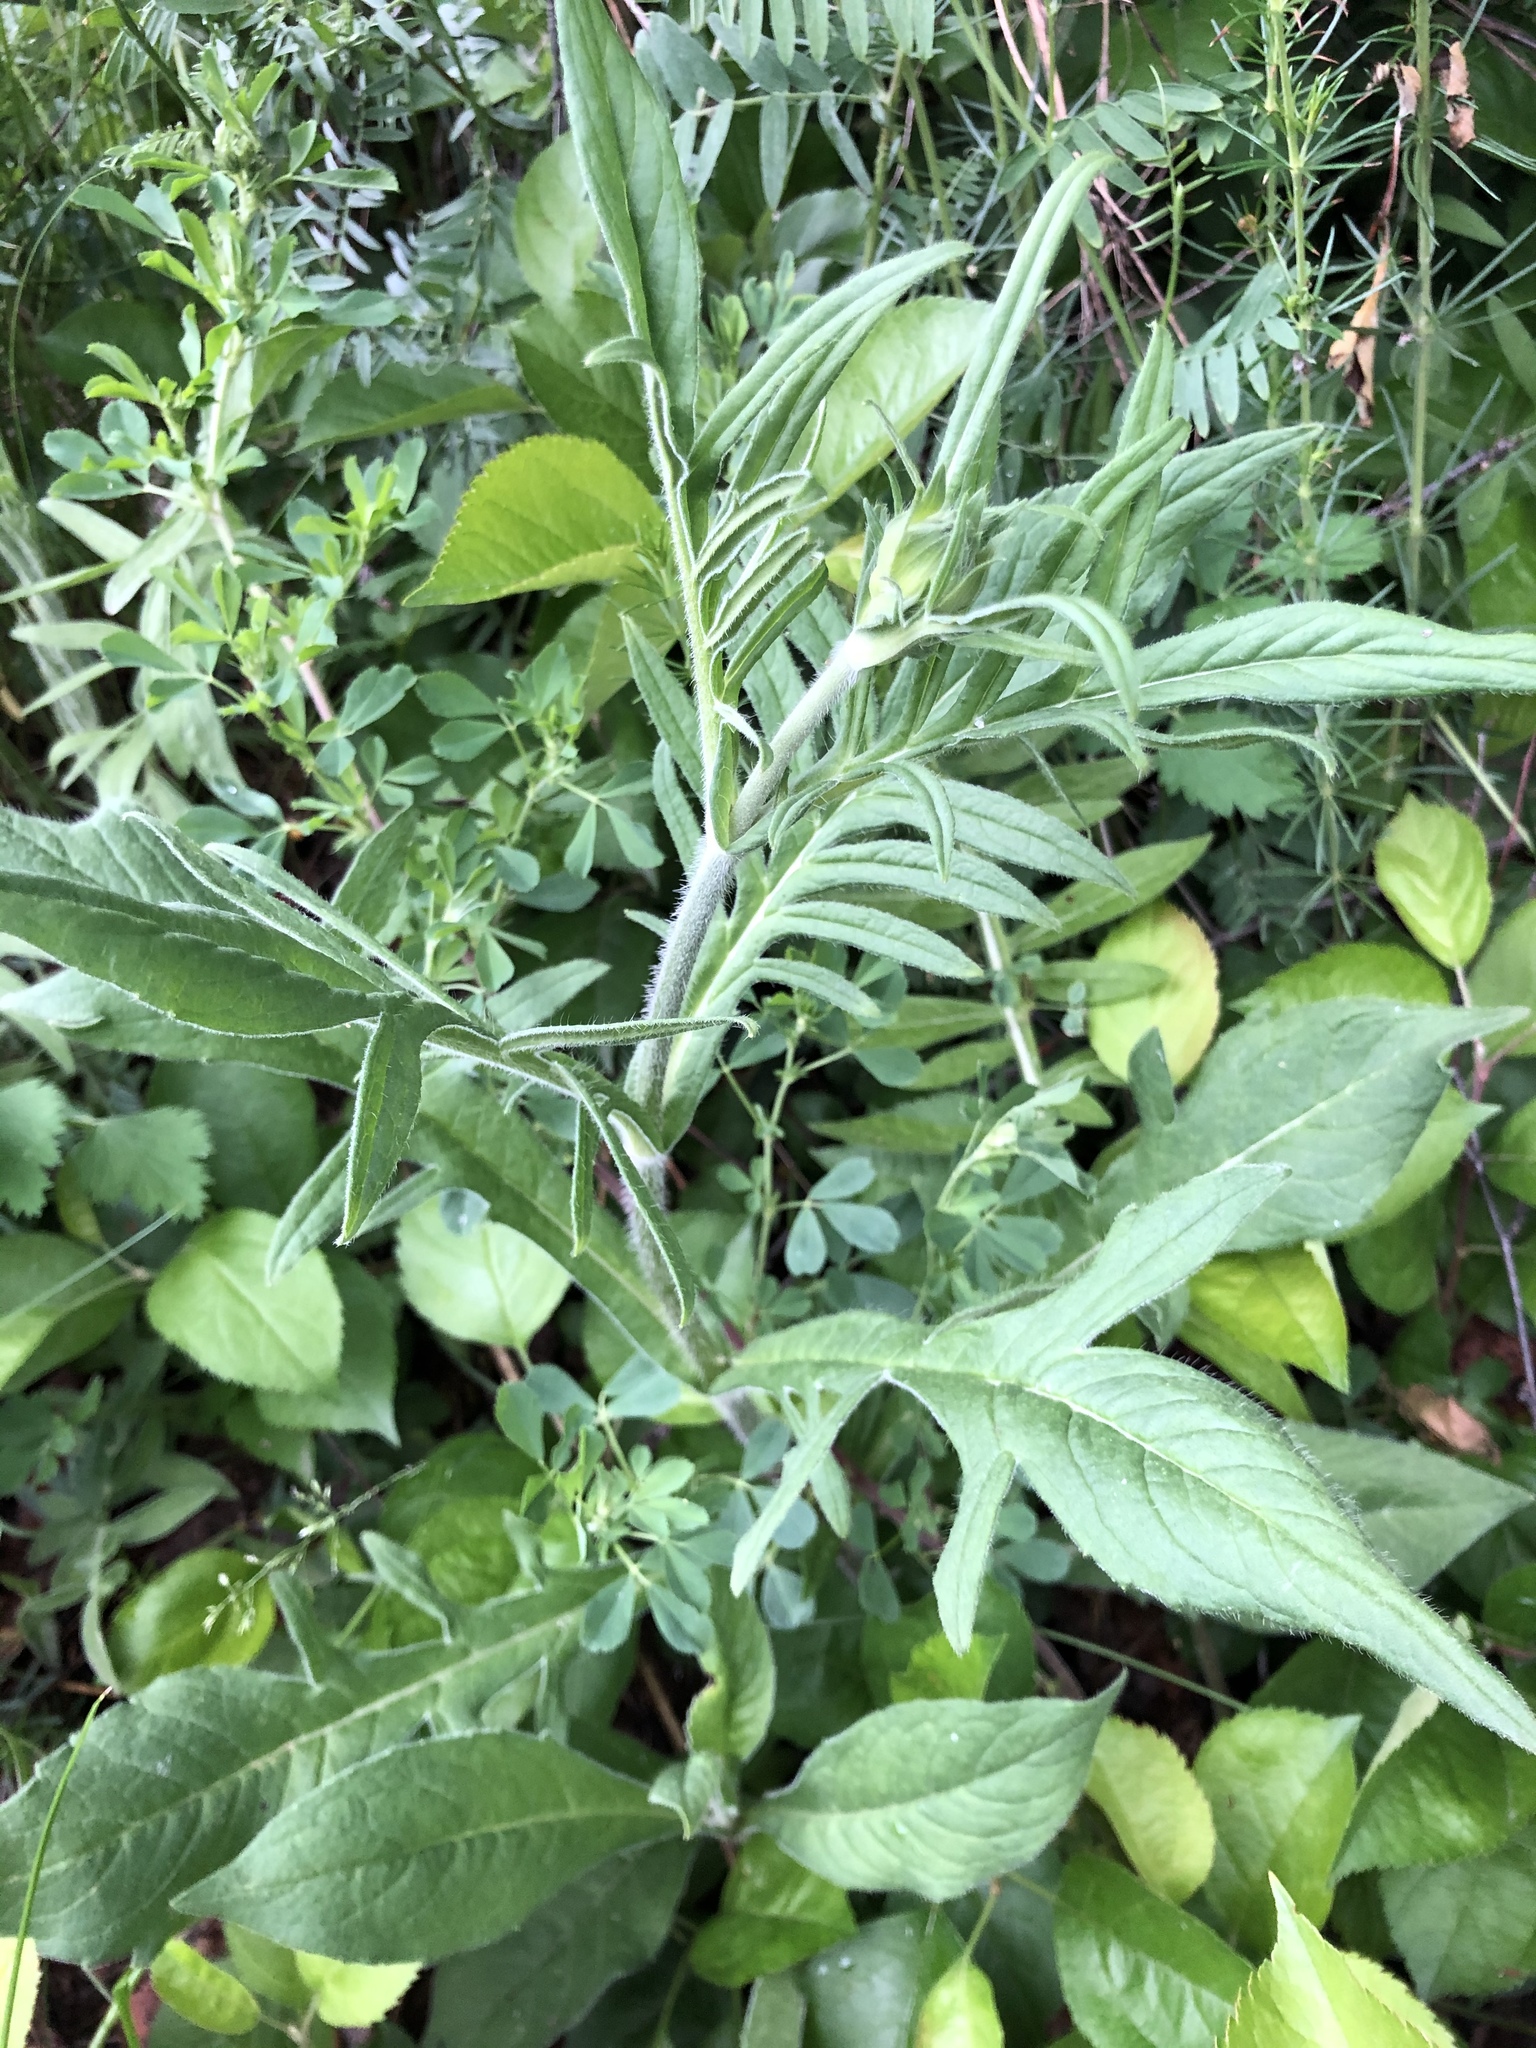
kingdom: Plantae
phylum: Tracheophyta
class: Magnoliopsida
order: Dipsacales
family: Caprifoliaceae
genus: Knautia
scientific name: Knautia arvensis
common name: Field scabiosa
